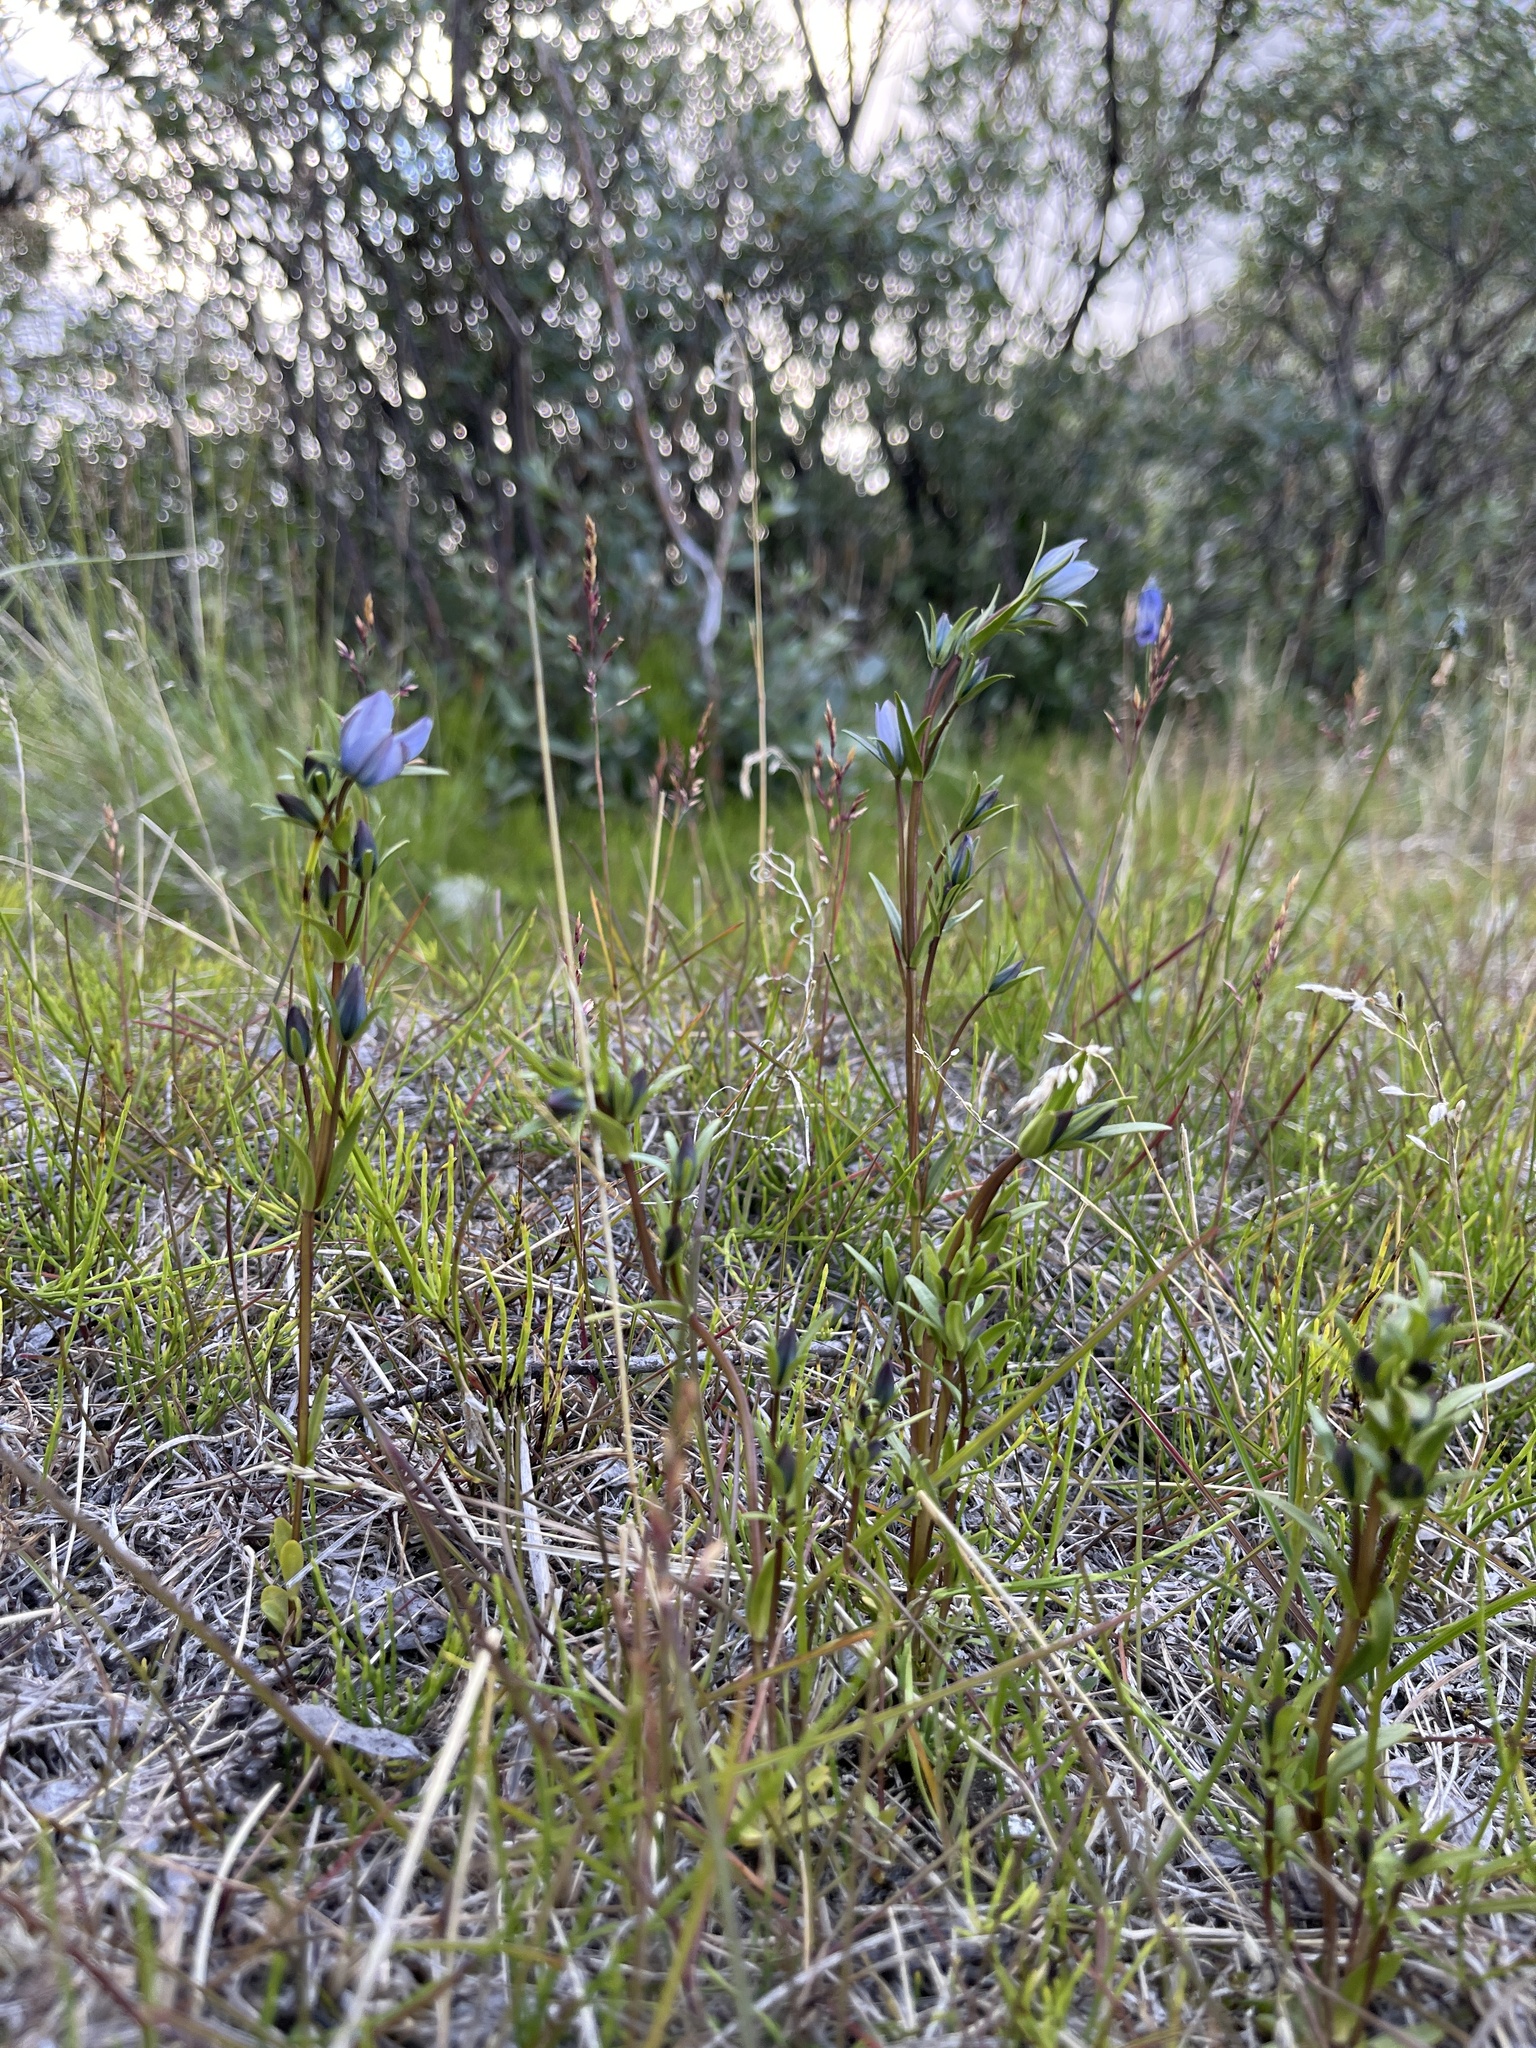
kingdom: Plantae
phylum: Tracheophyta
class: Magnoliopsida
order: Gentianales
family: Gentianaceae
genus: Lomatogonium
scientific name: Lomatogonium rotatum
